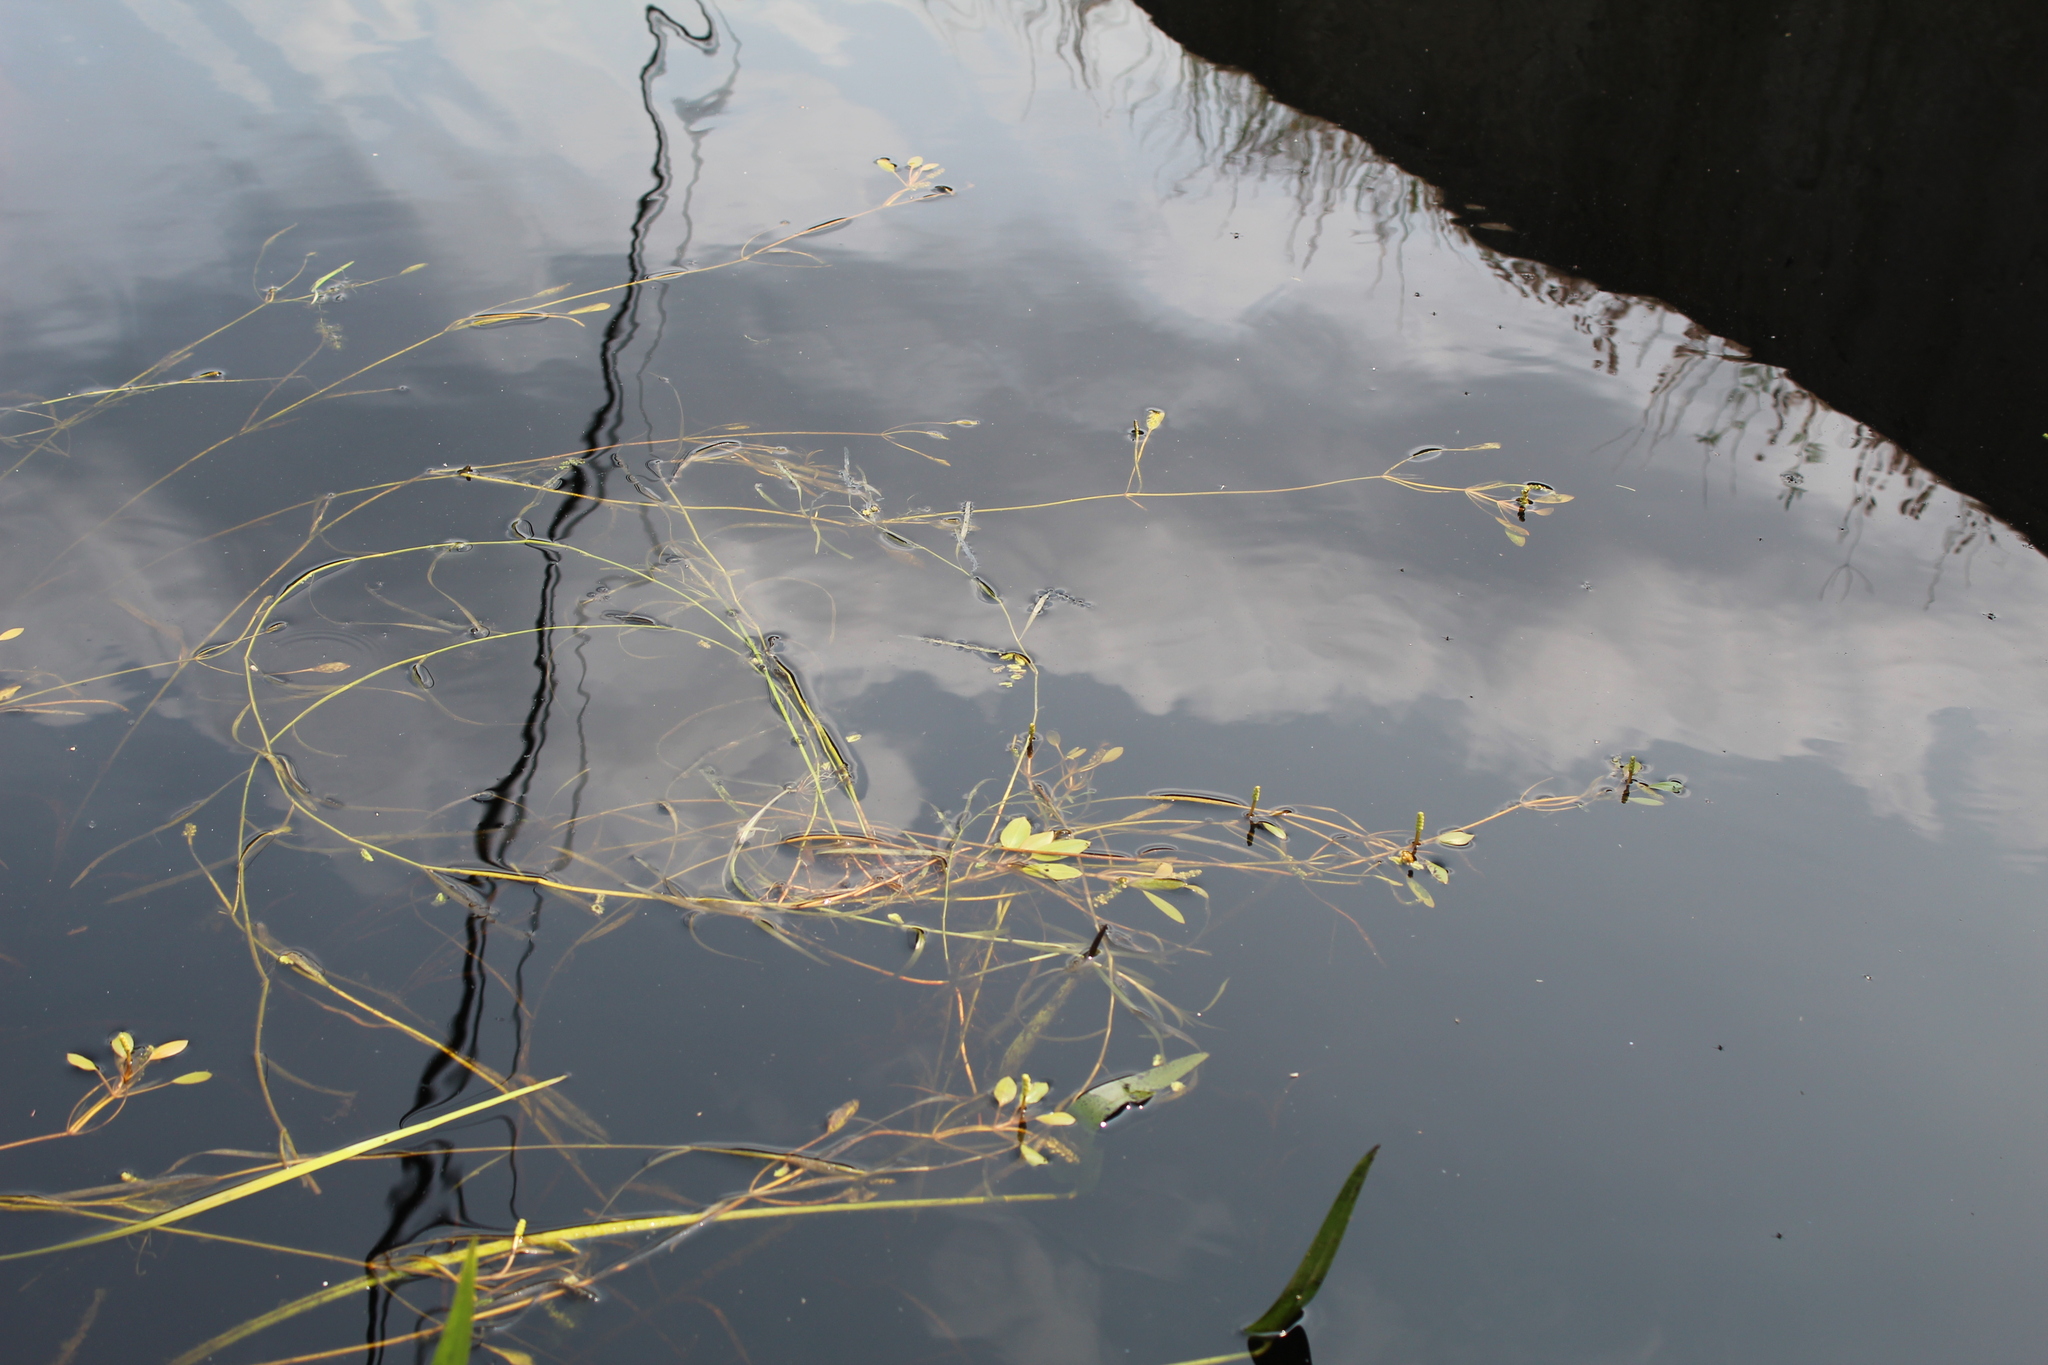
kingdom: Plantae
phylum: Tracheophyta
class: Liliopsida
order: Alismatales
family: Potamogetonaceae
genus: Potamogeton
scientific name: Potamogeton epihydrus
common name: American pondweed
